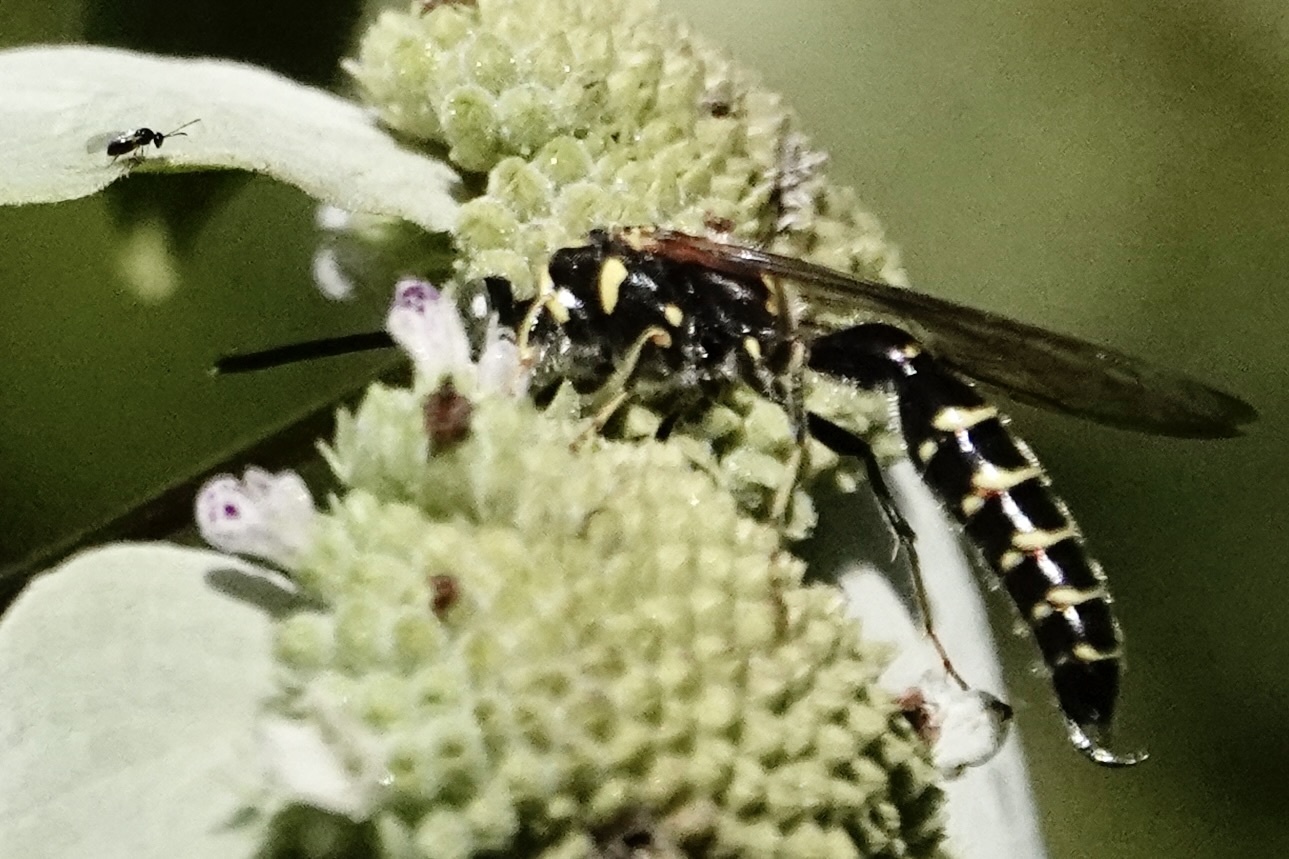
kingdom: Animalia
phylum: Arthropoda
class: Insecta
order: Hymenoptera
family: Tiphiidae
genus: Myzinum
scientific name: Myzinum
